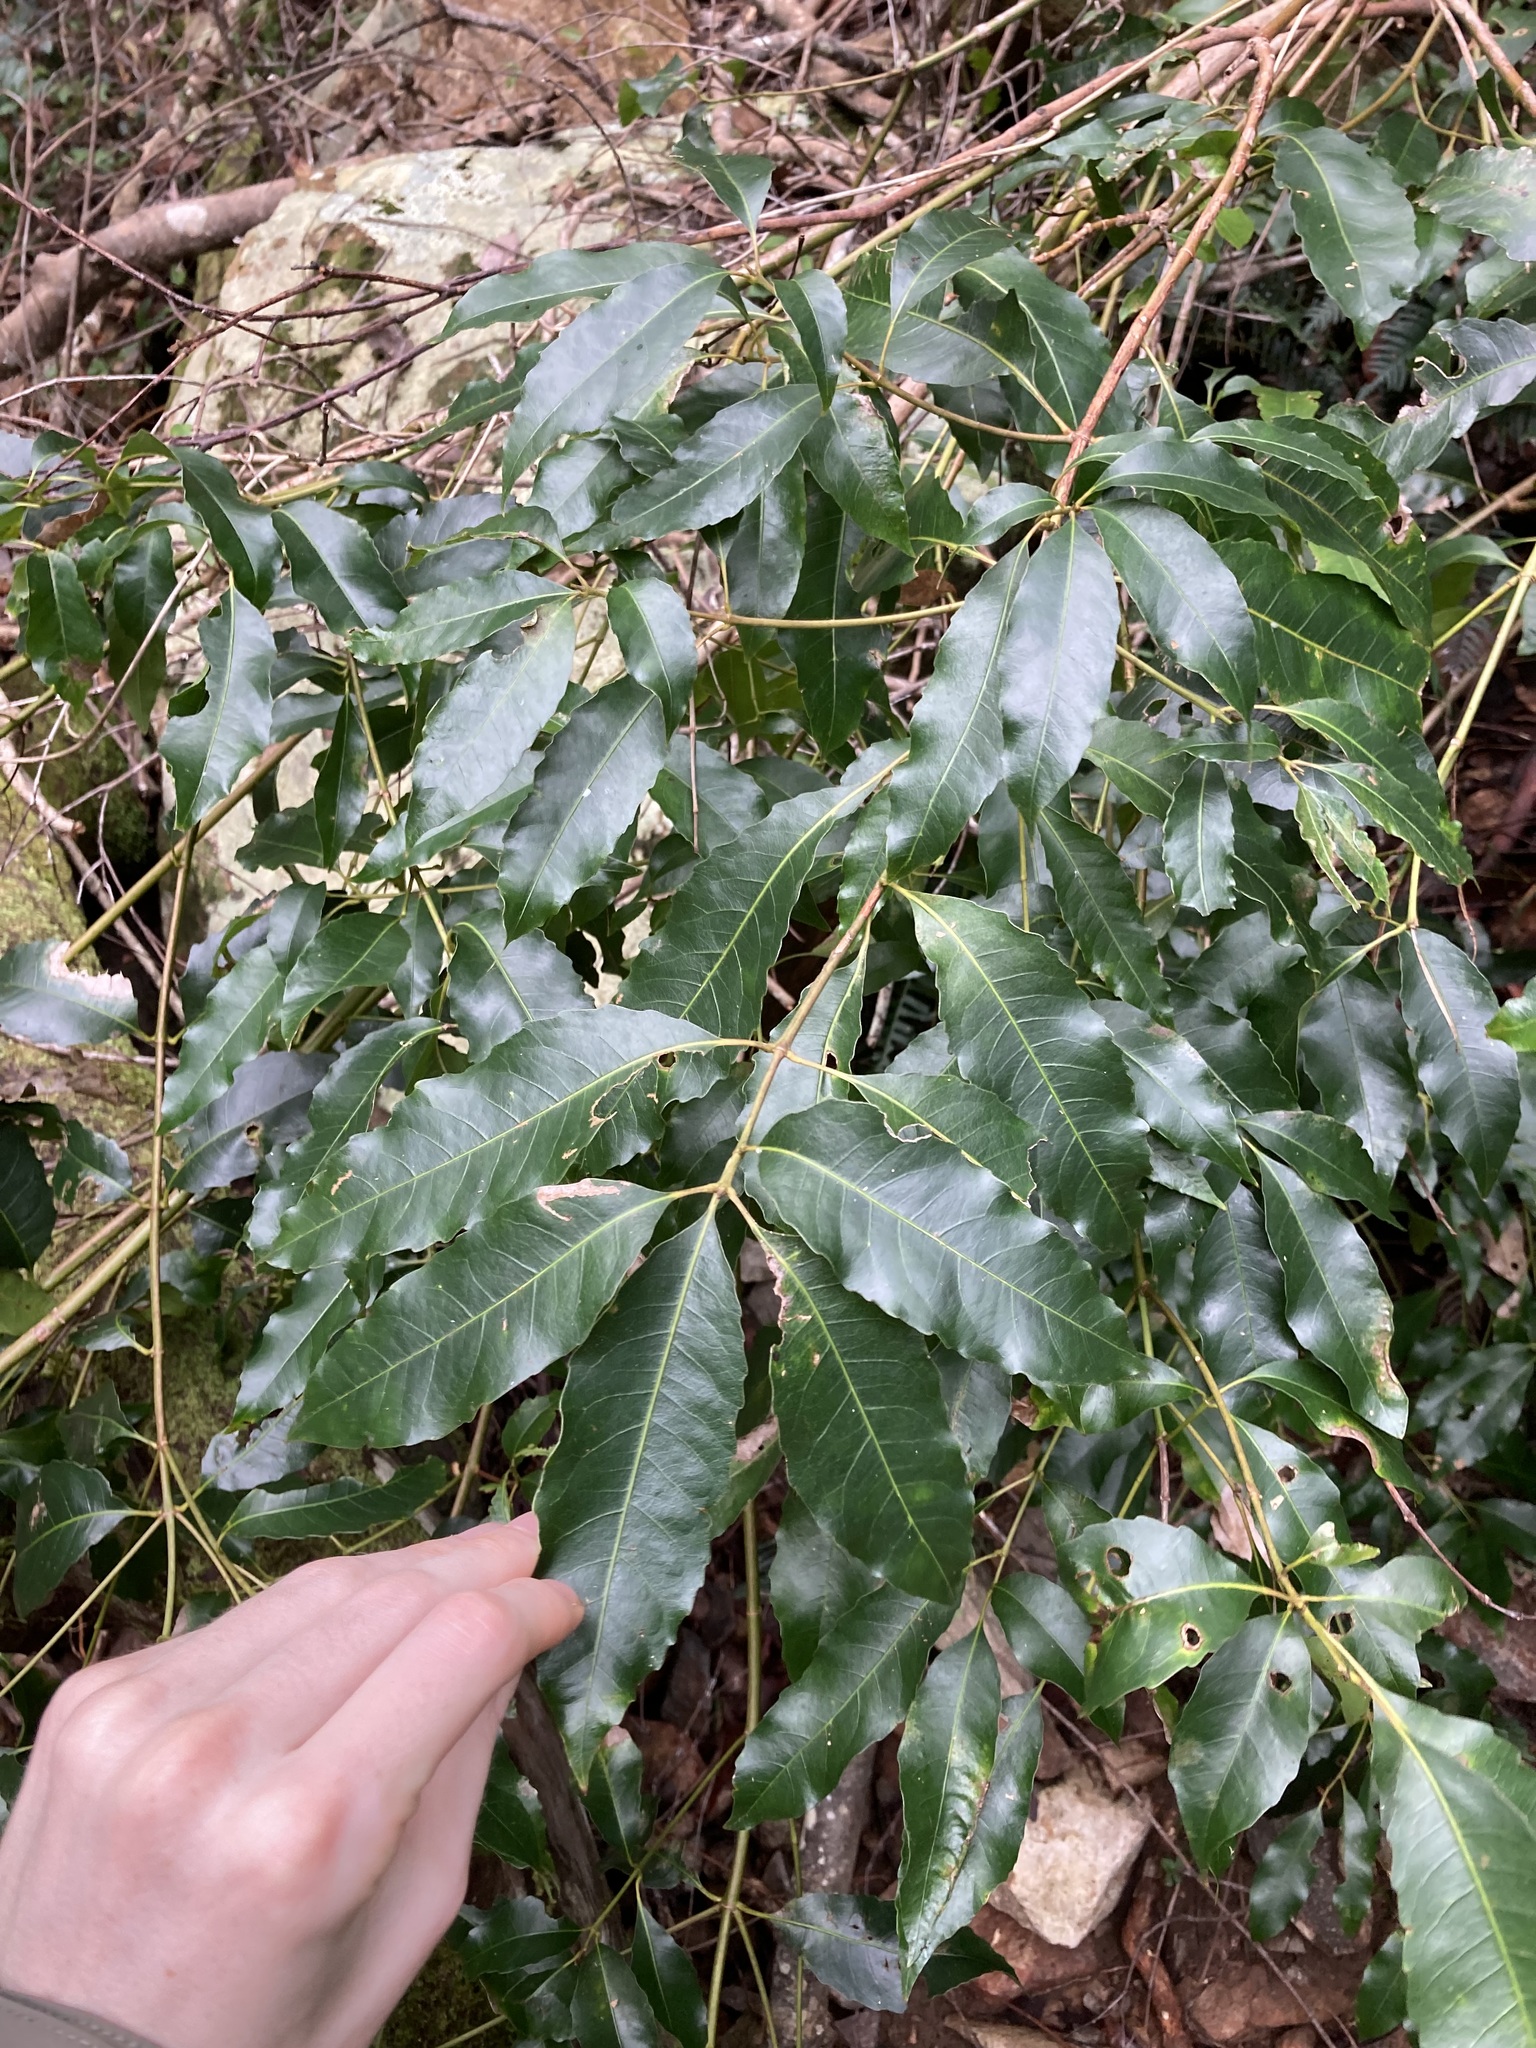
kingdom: Plantae
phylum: Tracheophyta
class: Magnoliopsida
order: Oxalidales
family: Cunoniaceae
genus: Schizomeria
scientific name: Schizomeria ovata
